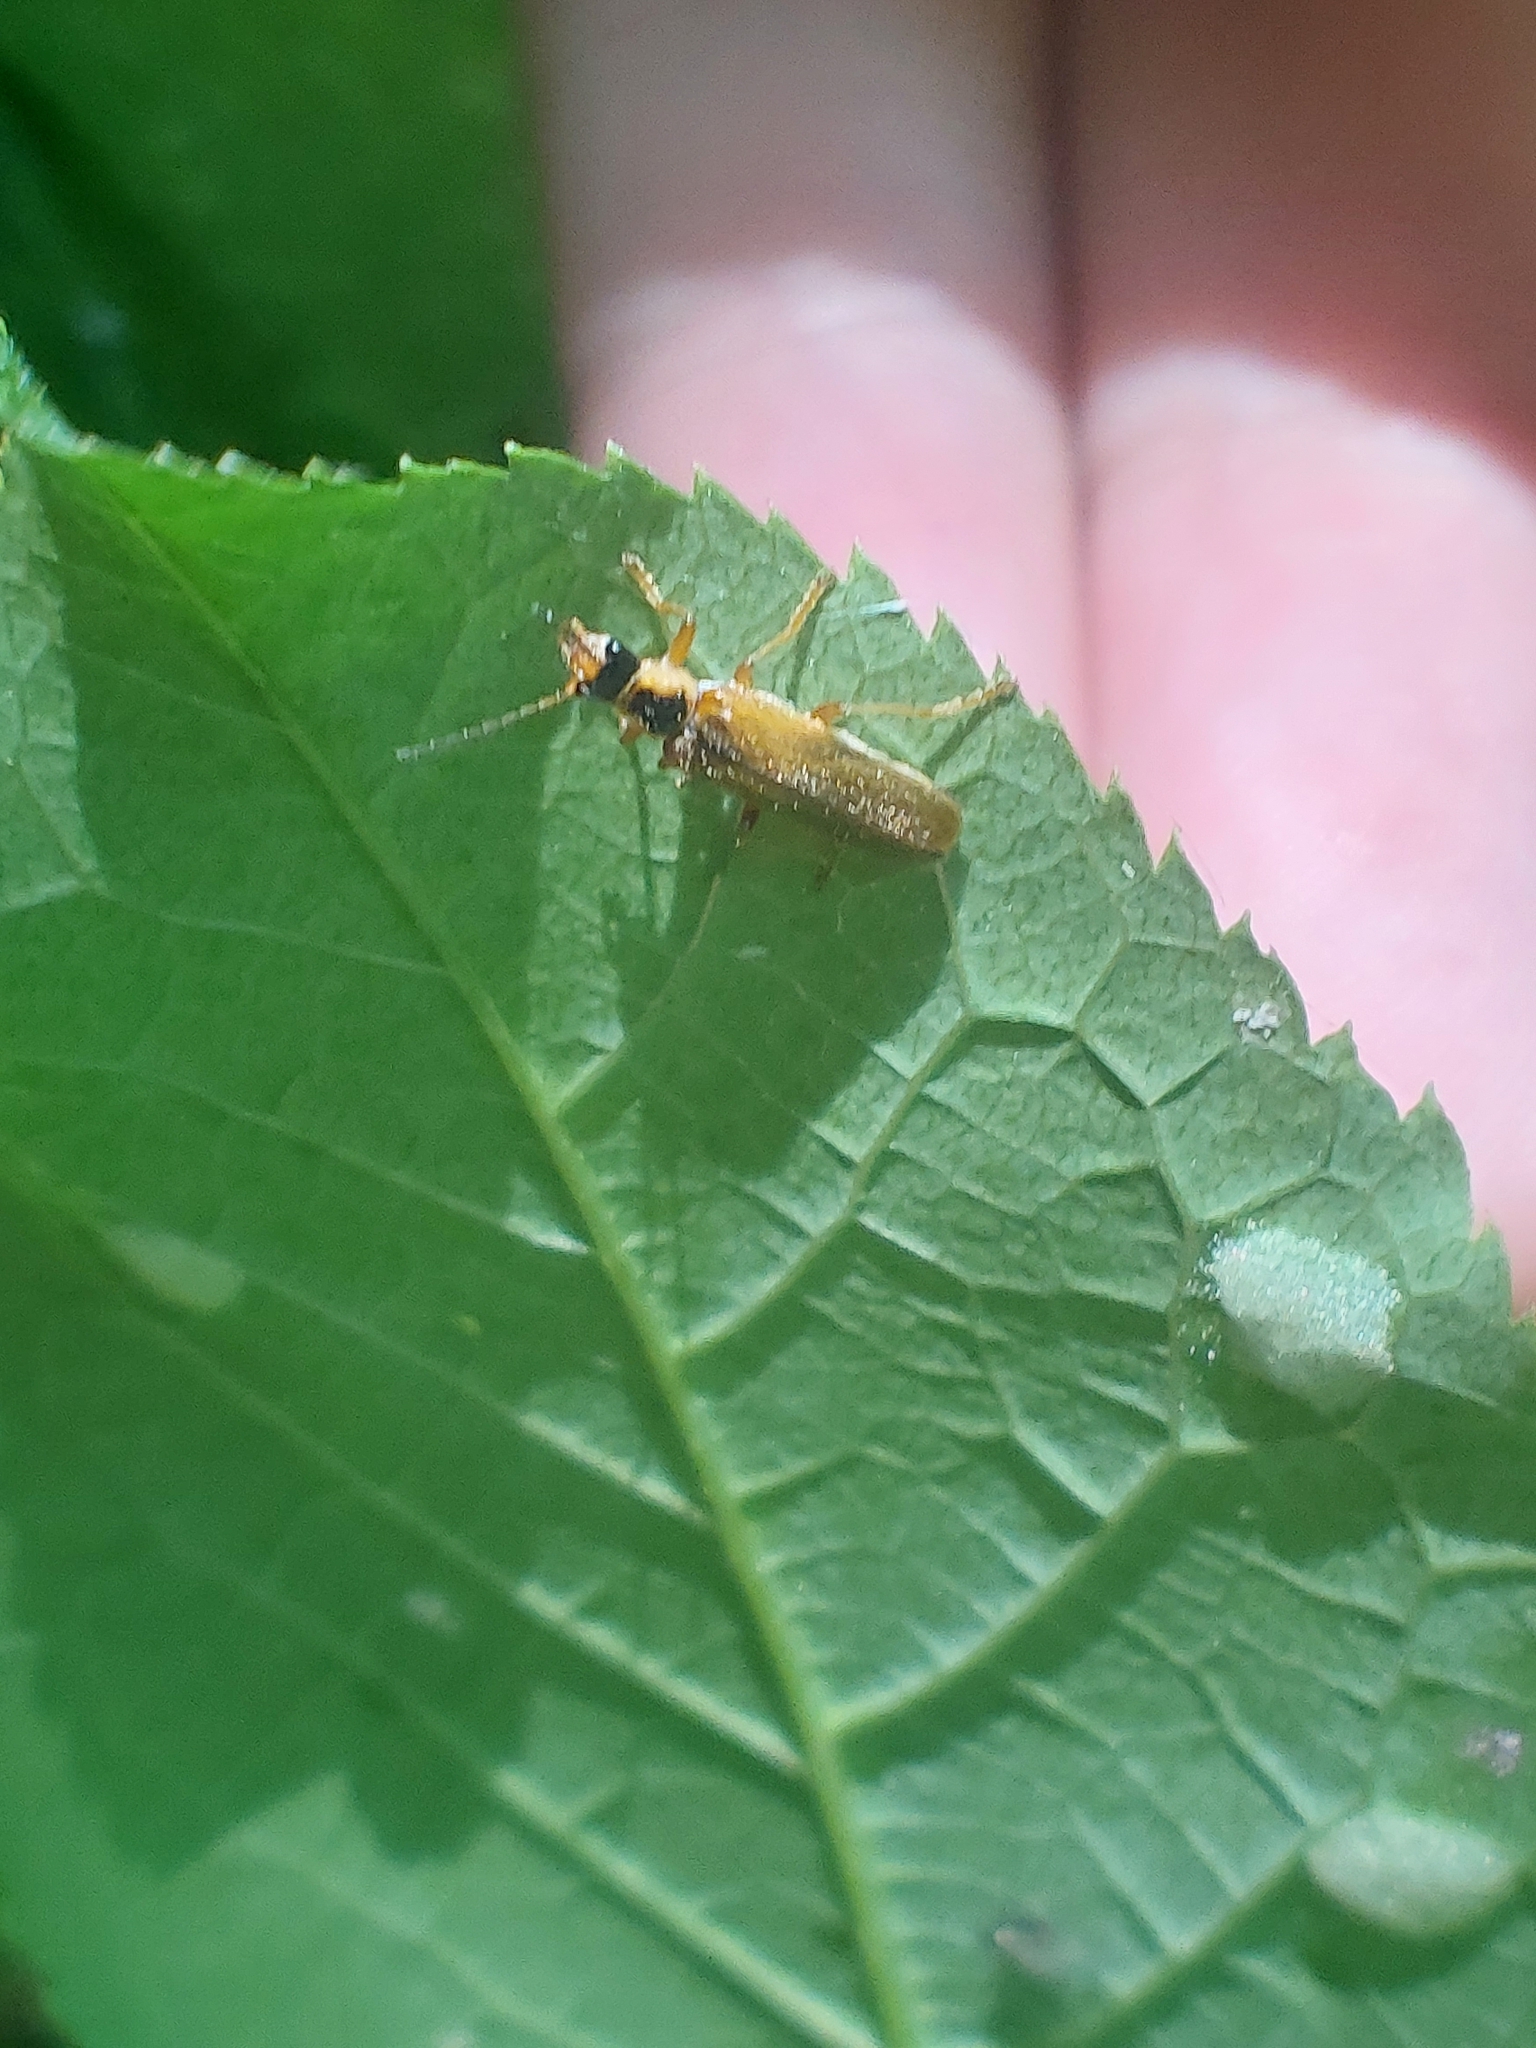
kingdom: Animalia
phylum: Arthropoda
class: Insecta
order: Coleoptera
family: Cantharidae
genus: Cantharis
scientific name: Cantharis decipiens
